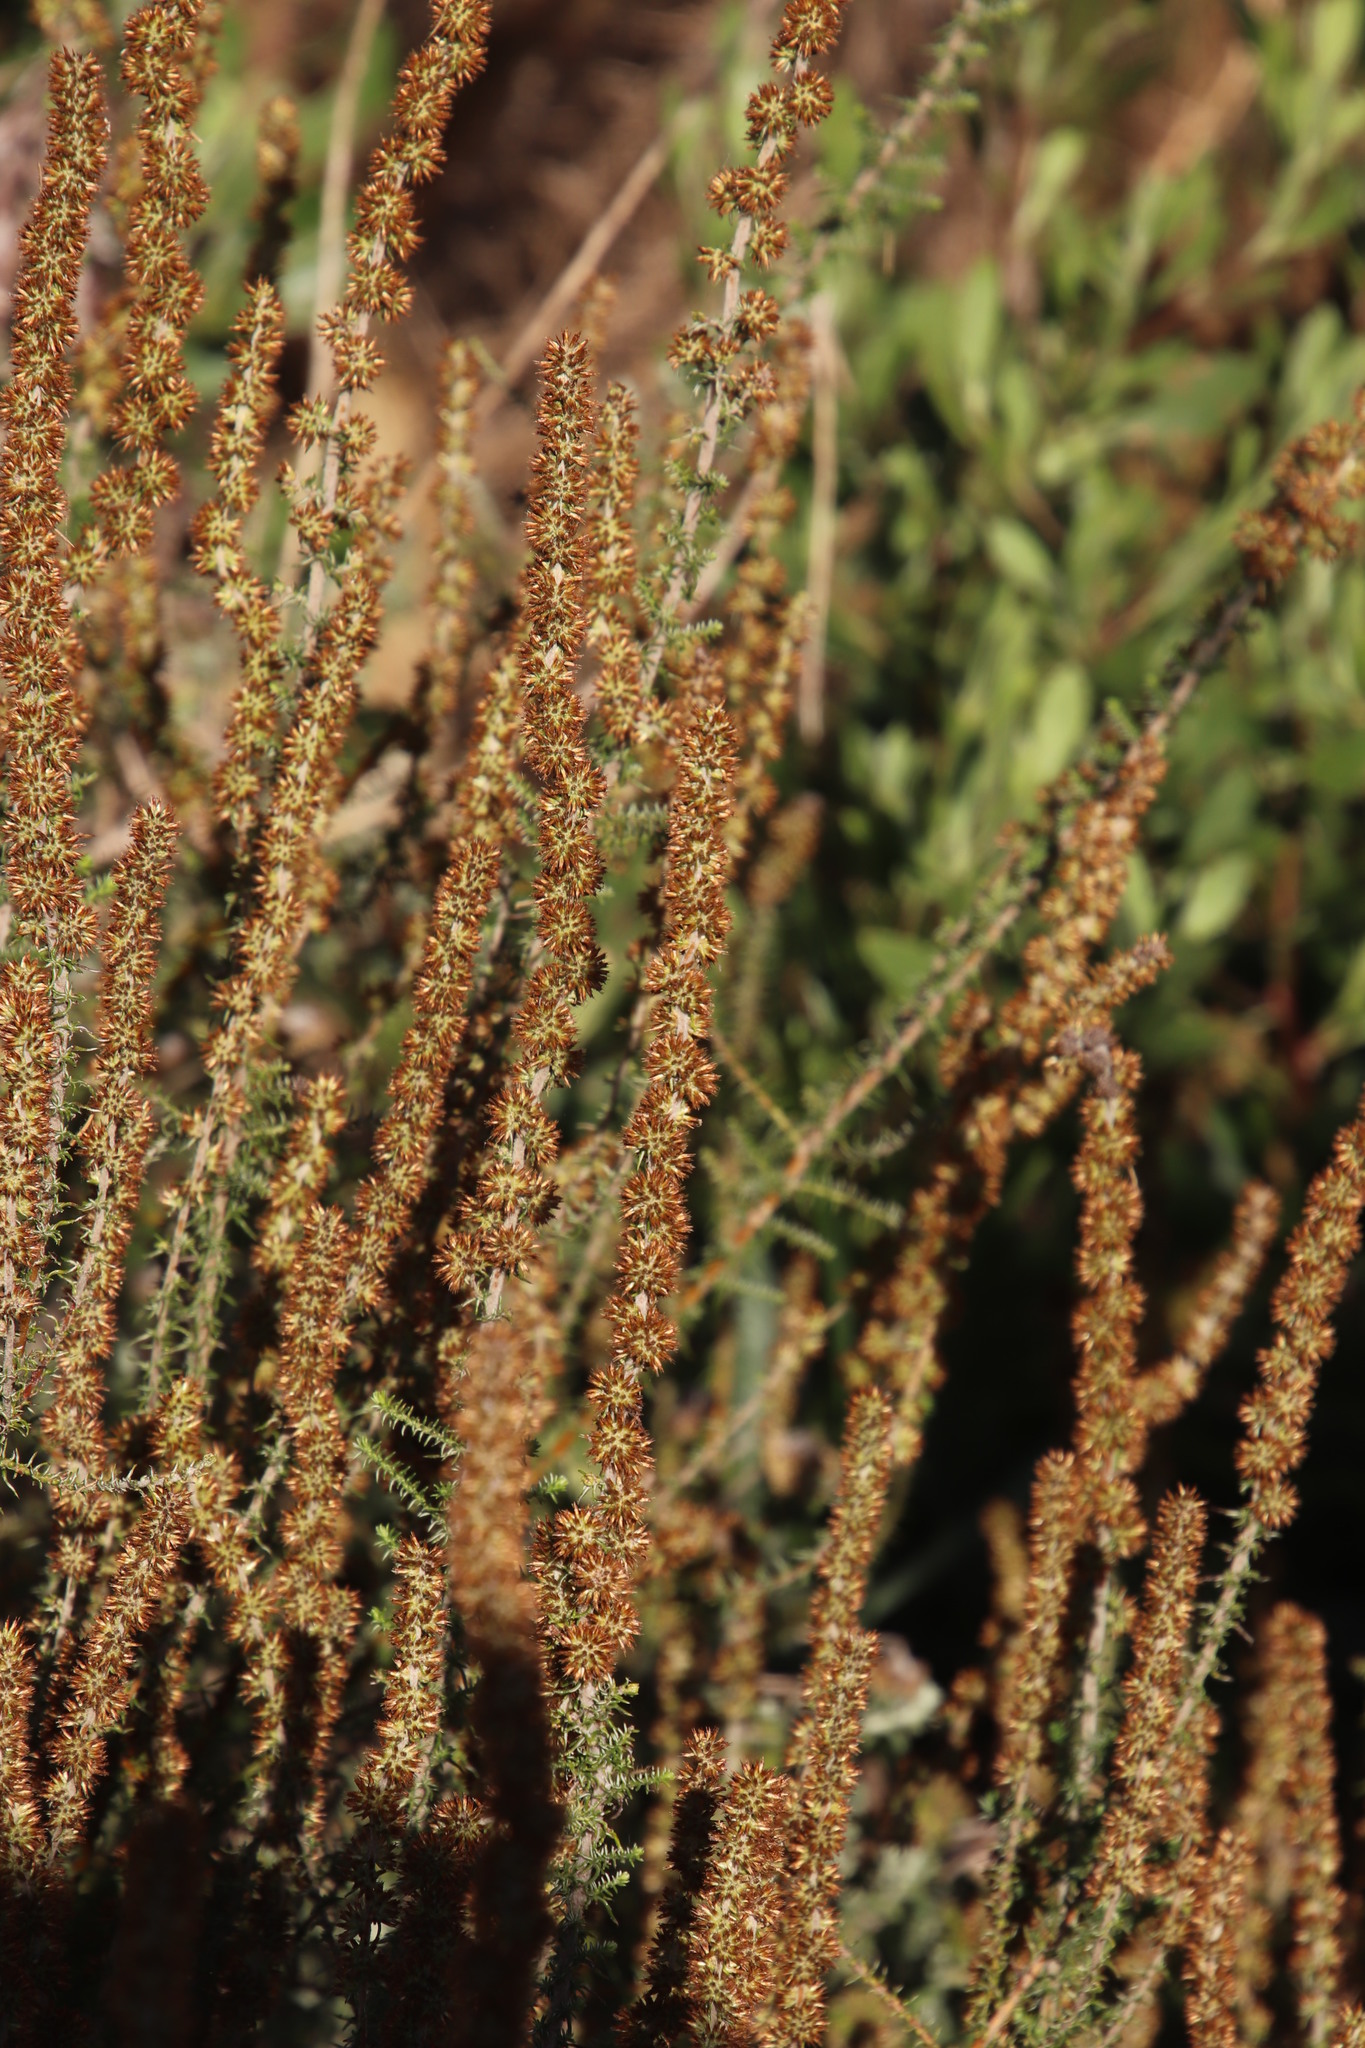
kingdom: Plantae
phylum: Tracheophyta
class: Magnoliopsida
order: Asterales
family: Asteraceae
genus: Seriphium
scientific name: Seriphium plumosum
